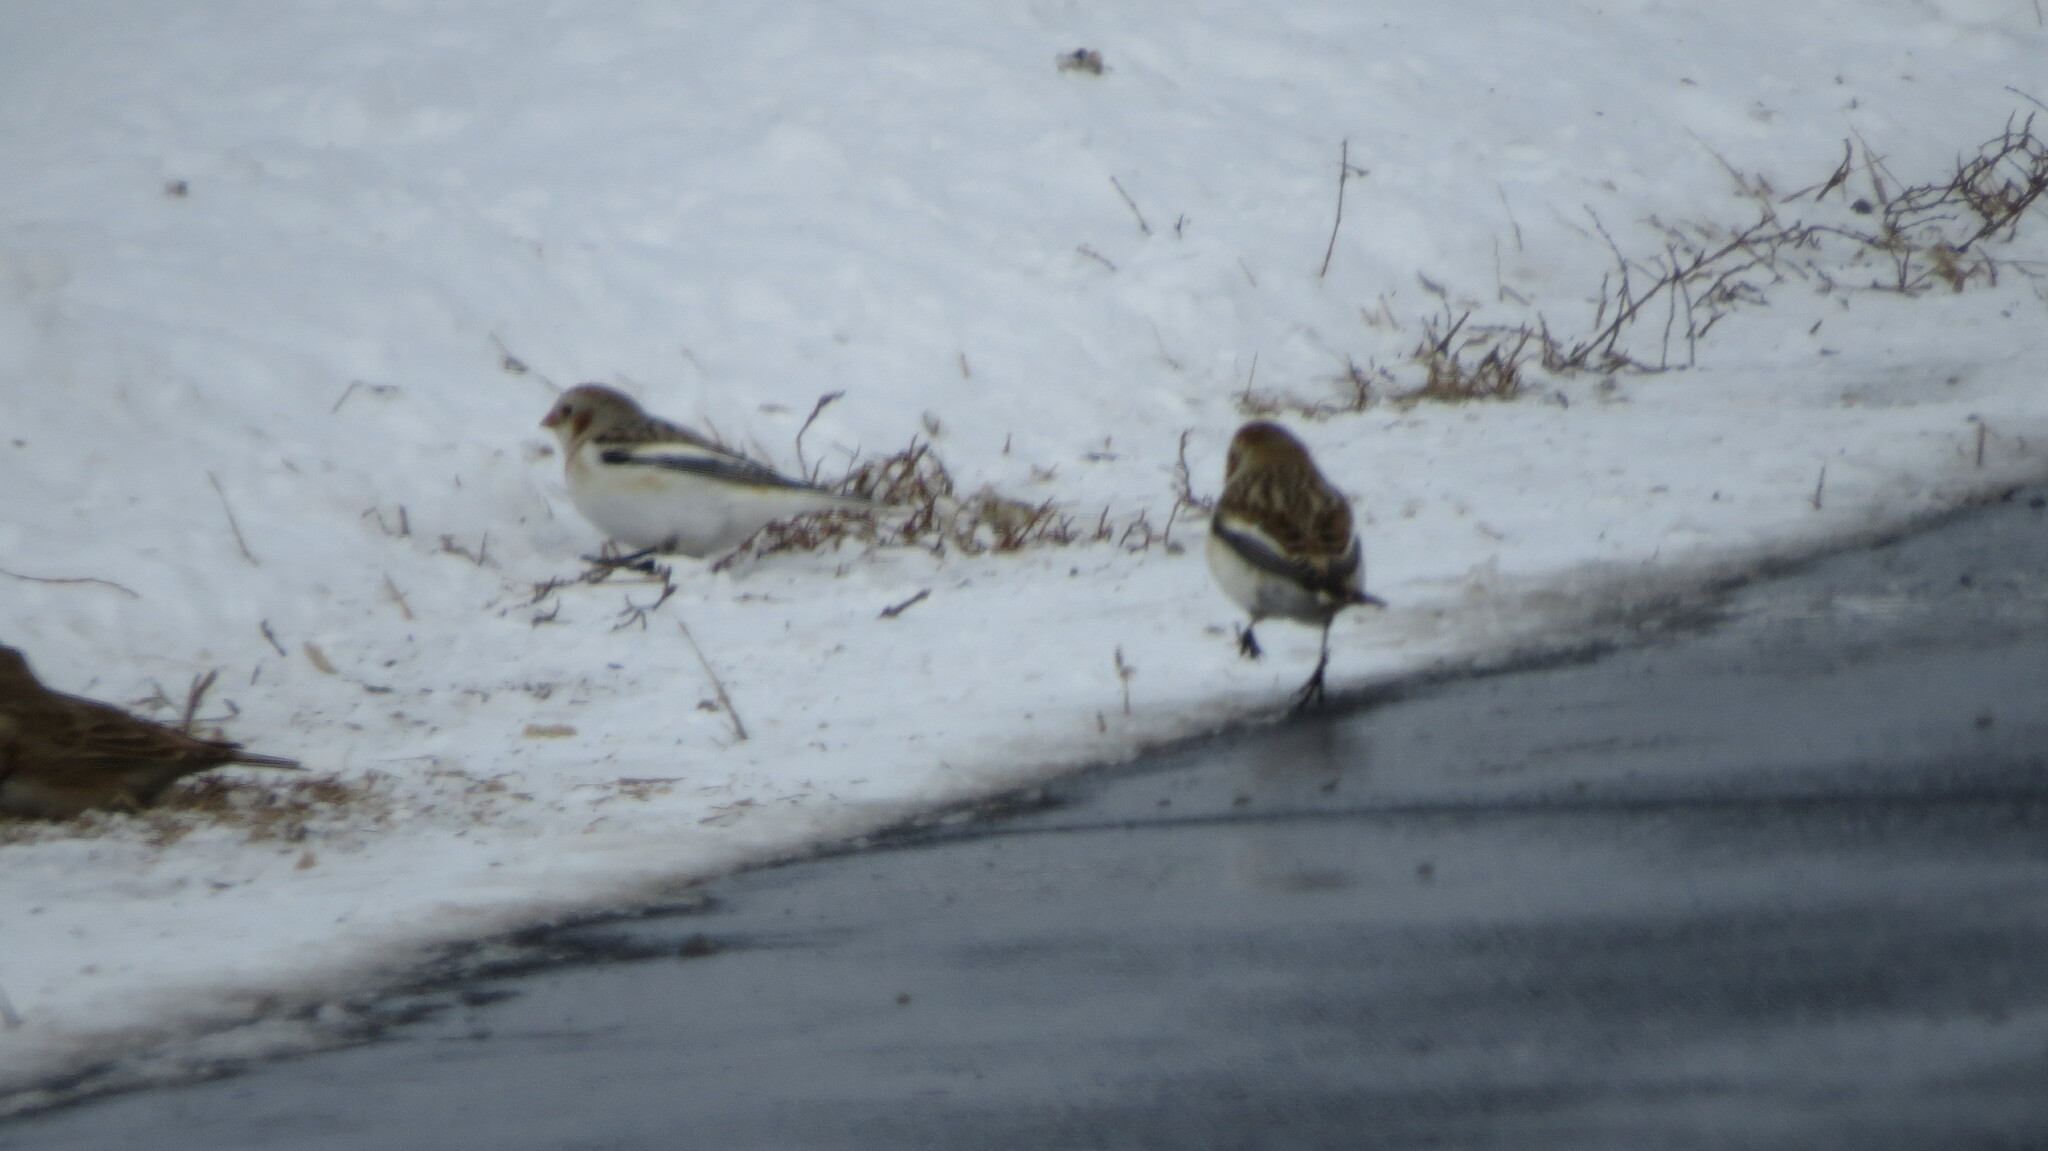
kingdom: Animalia
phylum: Chordata
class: Aves
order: Passeriformes
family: Calcariidae
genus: Plectrophenax
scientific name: Plectrophenax nivalis
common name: Snow bunting
